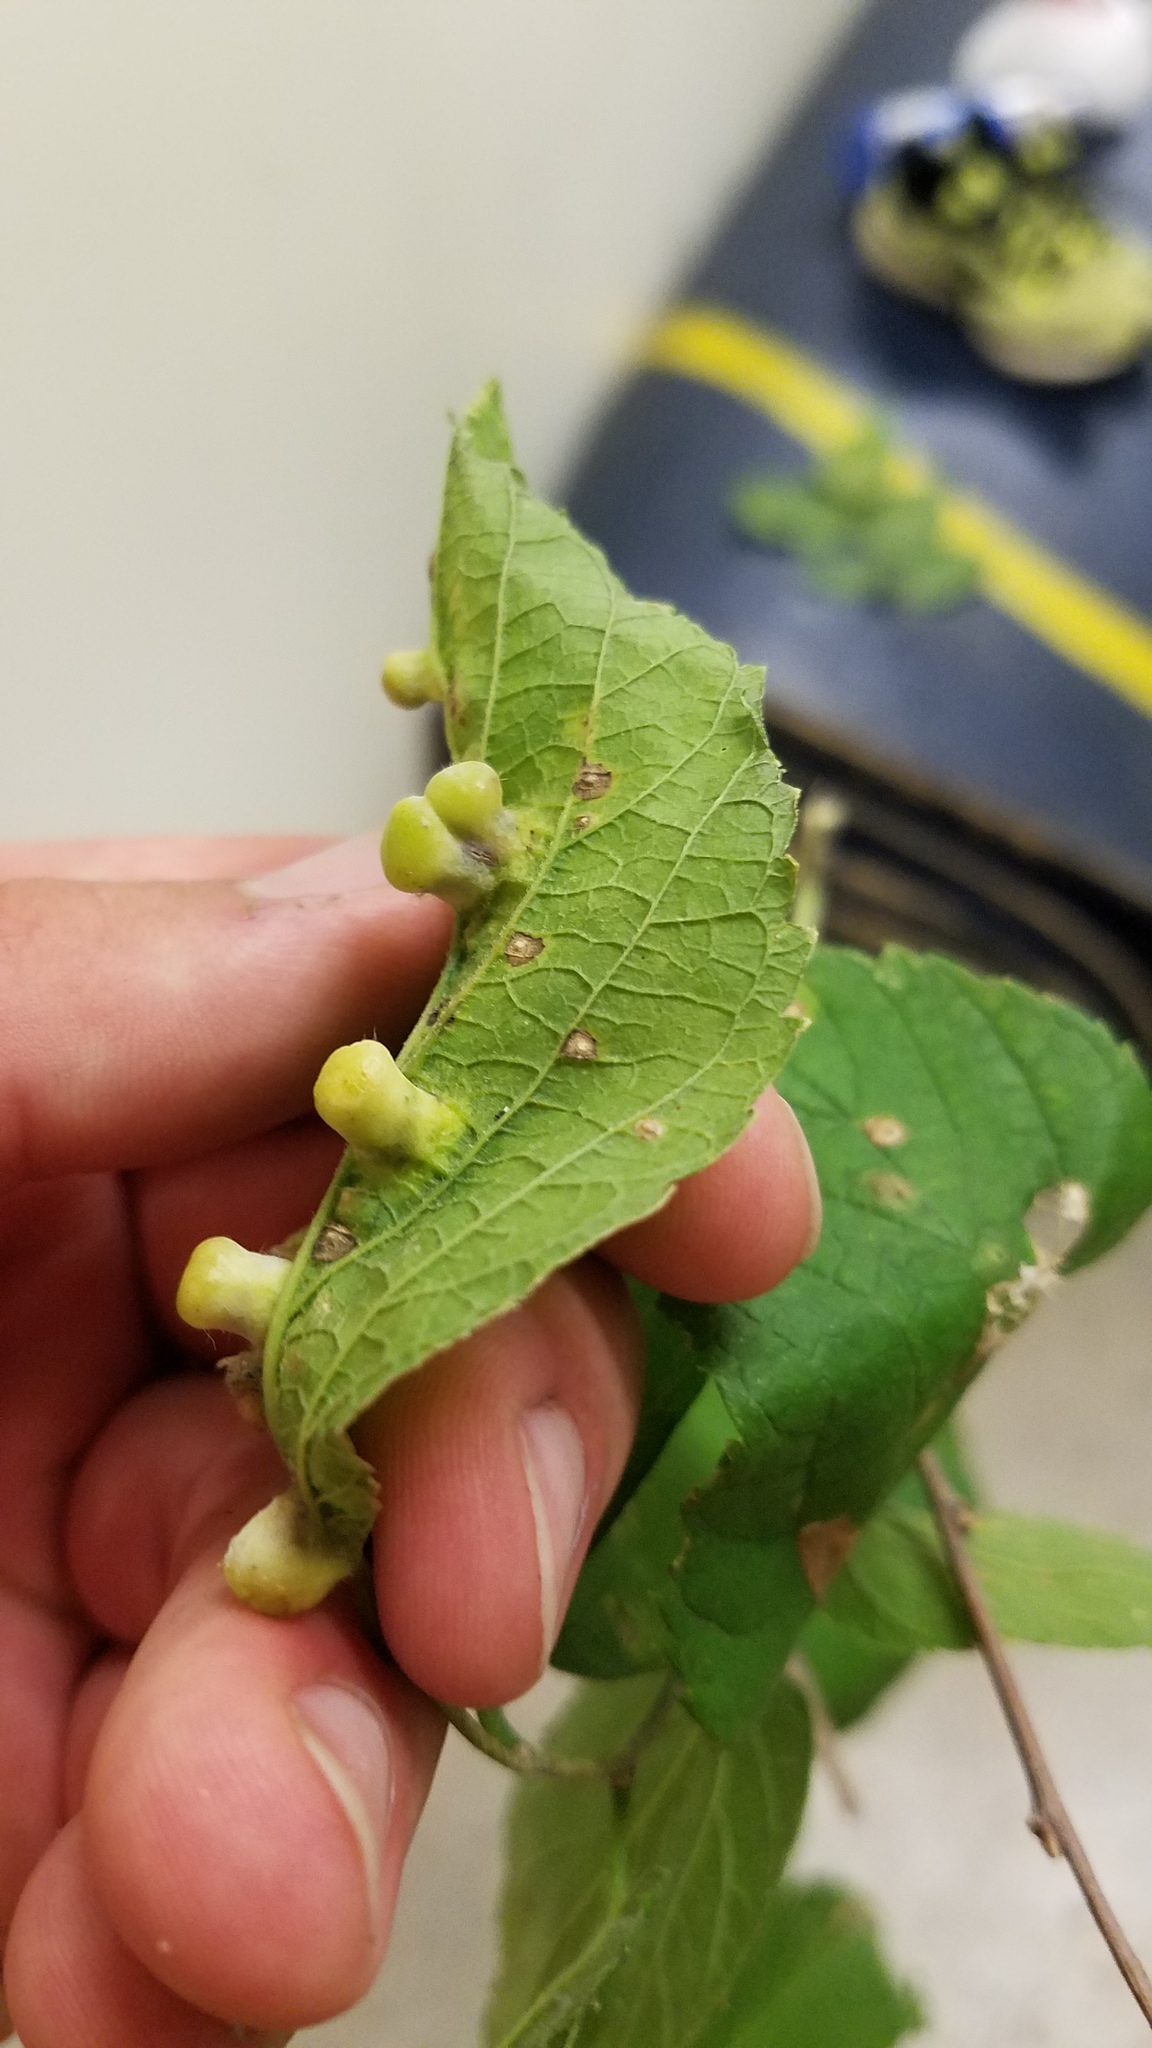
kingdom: Animalia
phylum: Arthropoda
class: Insecta
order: Hemiptera
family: Aphalaridae
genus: Pachypsylla
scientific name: Pachypsylla celtidismamma
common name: Hackberry nipplegall psyllid
